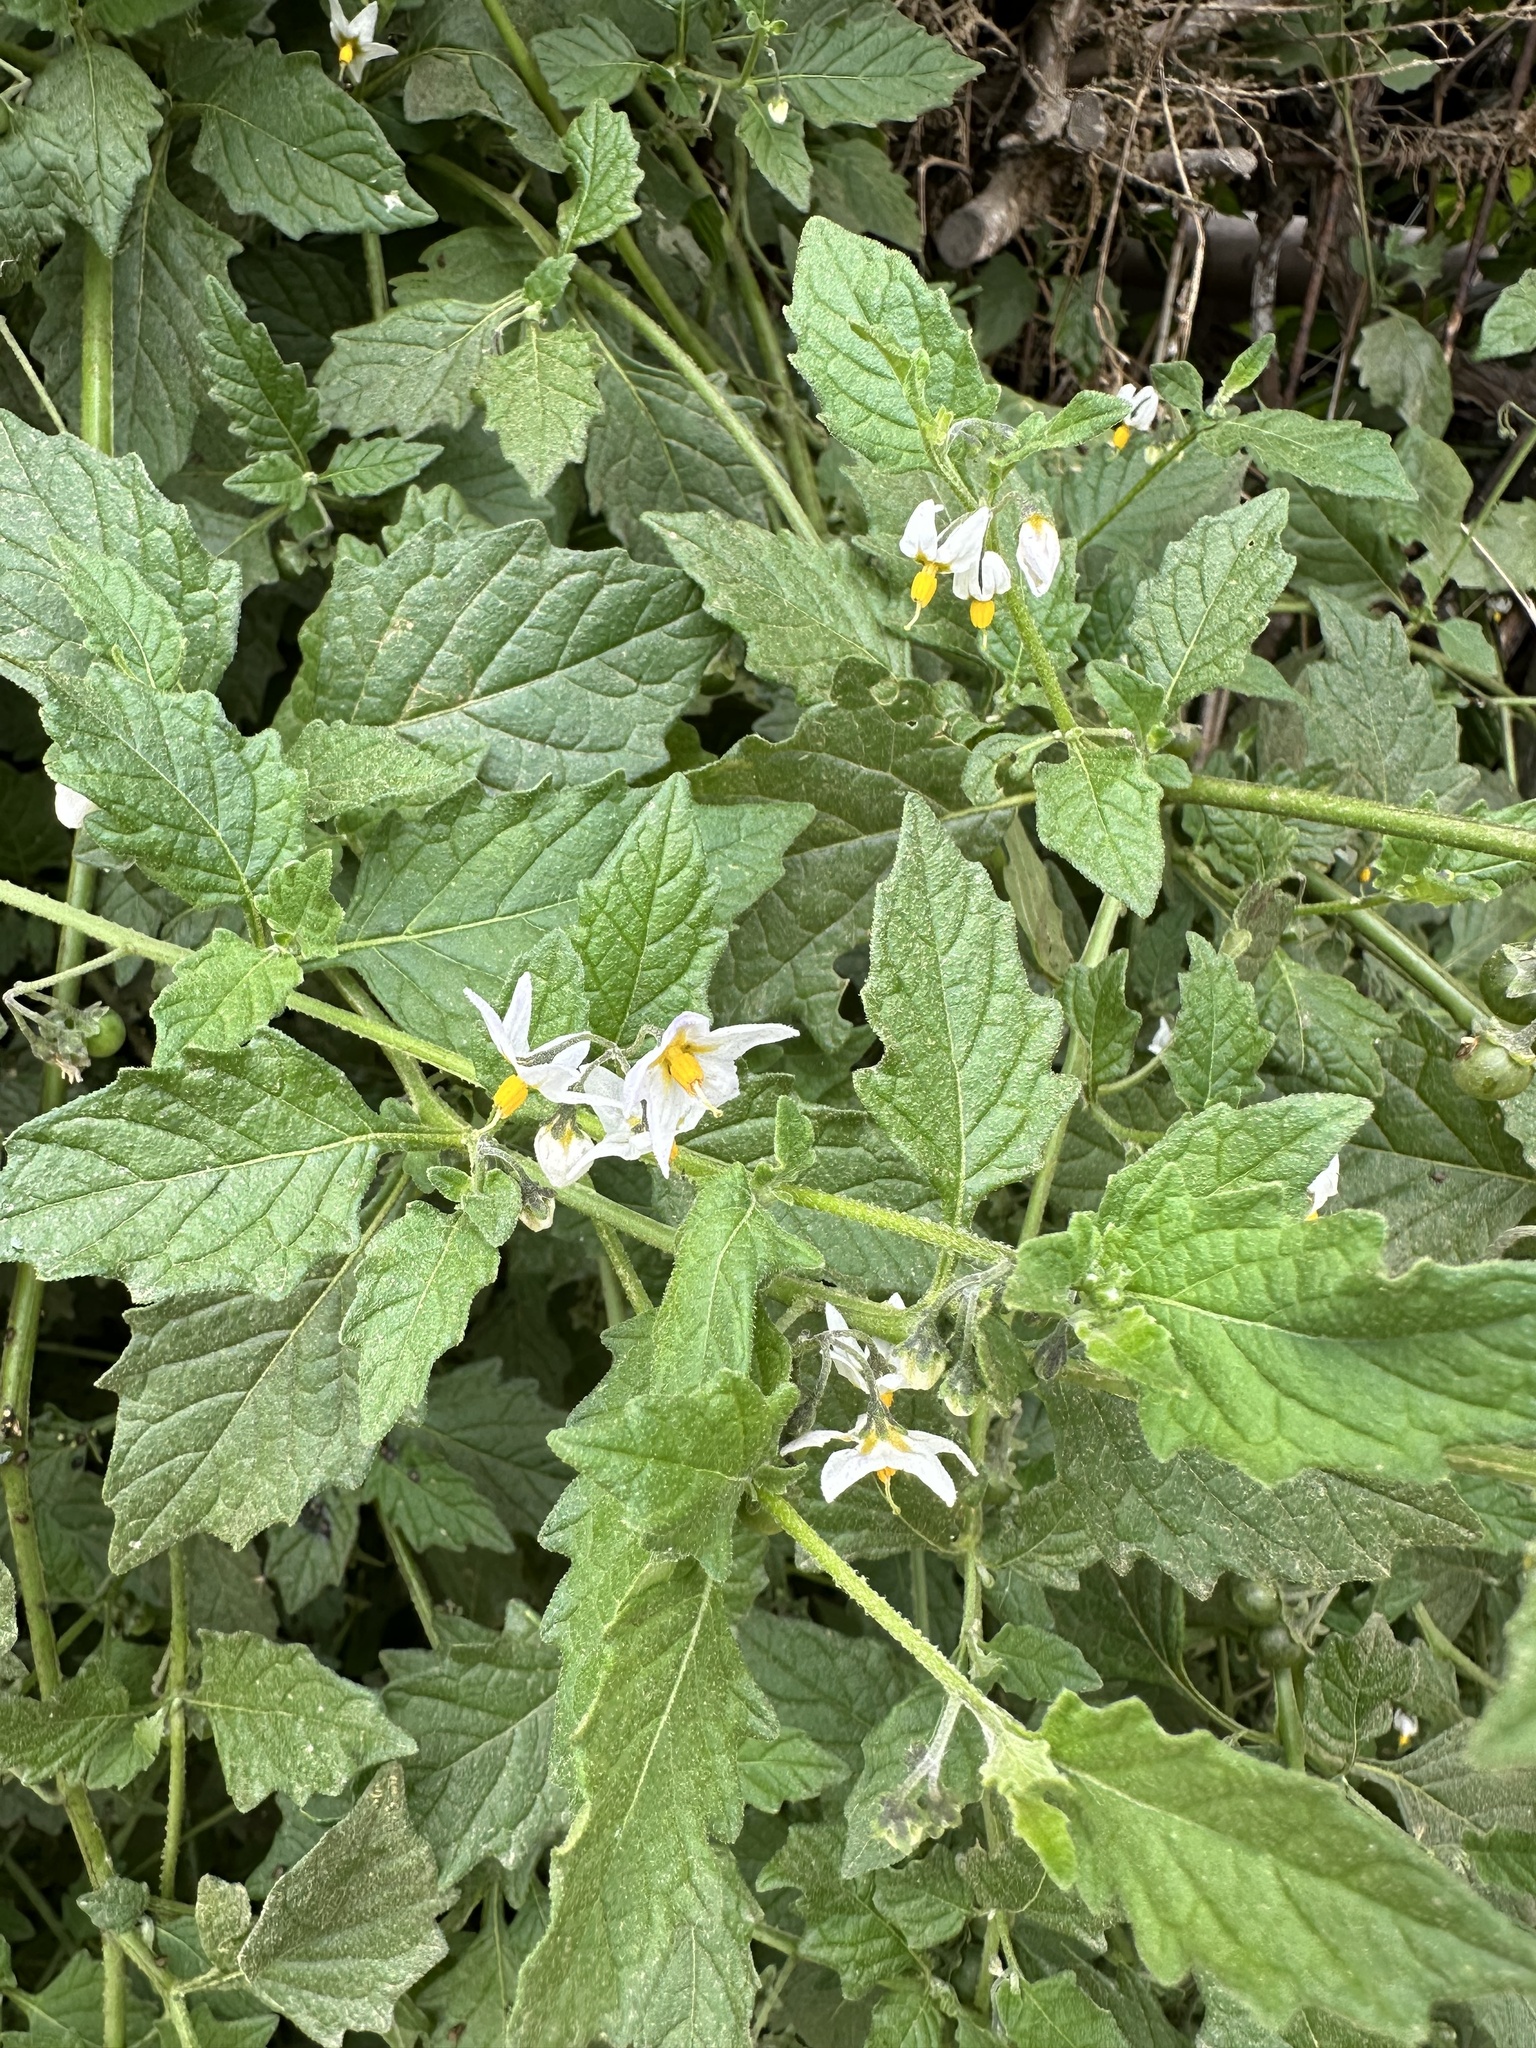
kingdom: Plantae
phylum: Tracheophyta
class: Magnoliopsida
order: Solanales
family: Solanaceae
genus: Solanum
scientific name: Solanum furcatum
